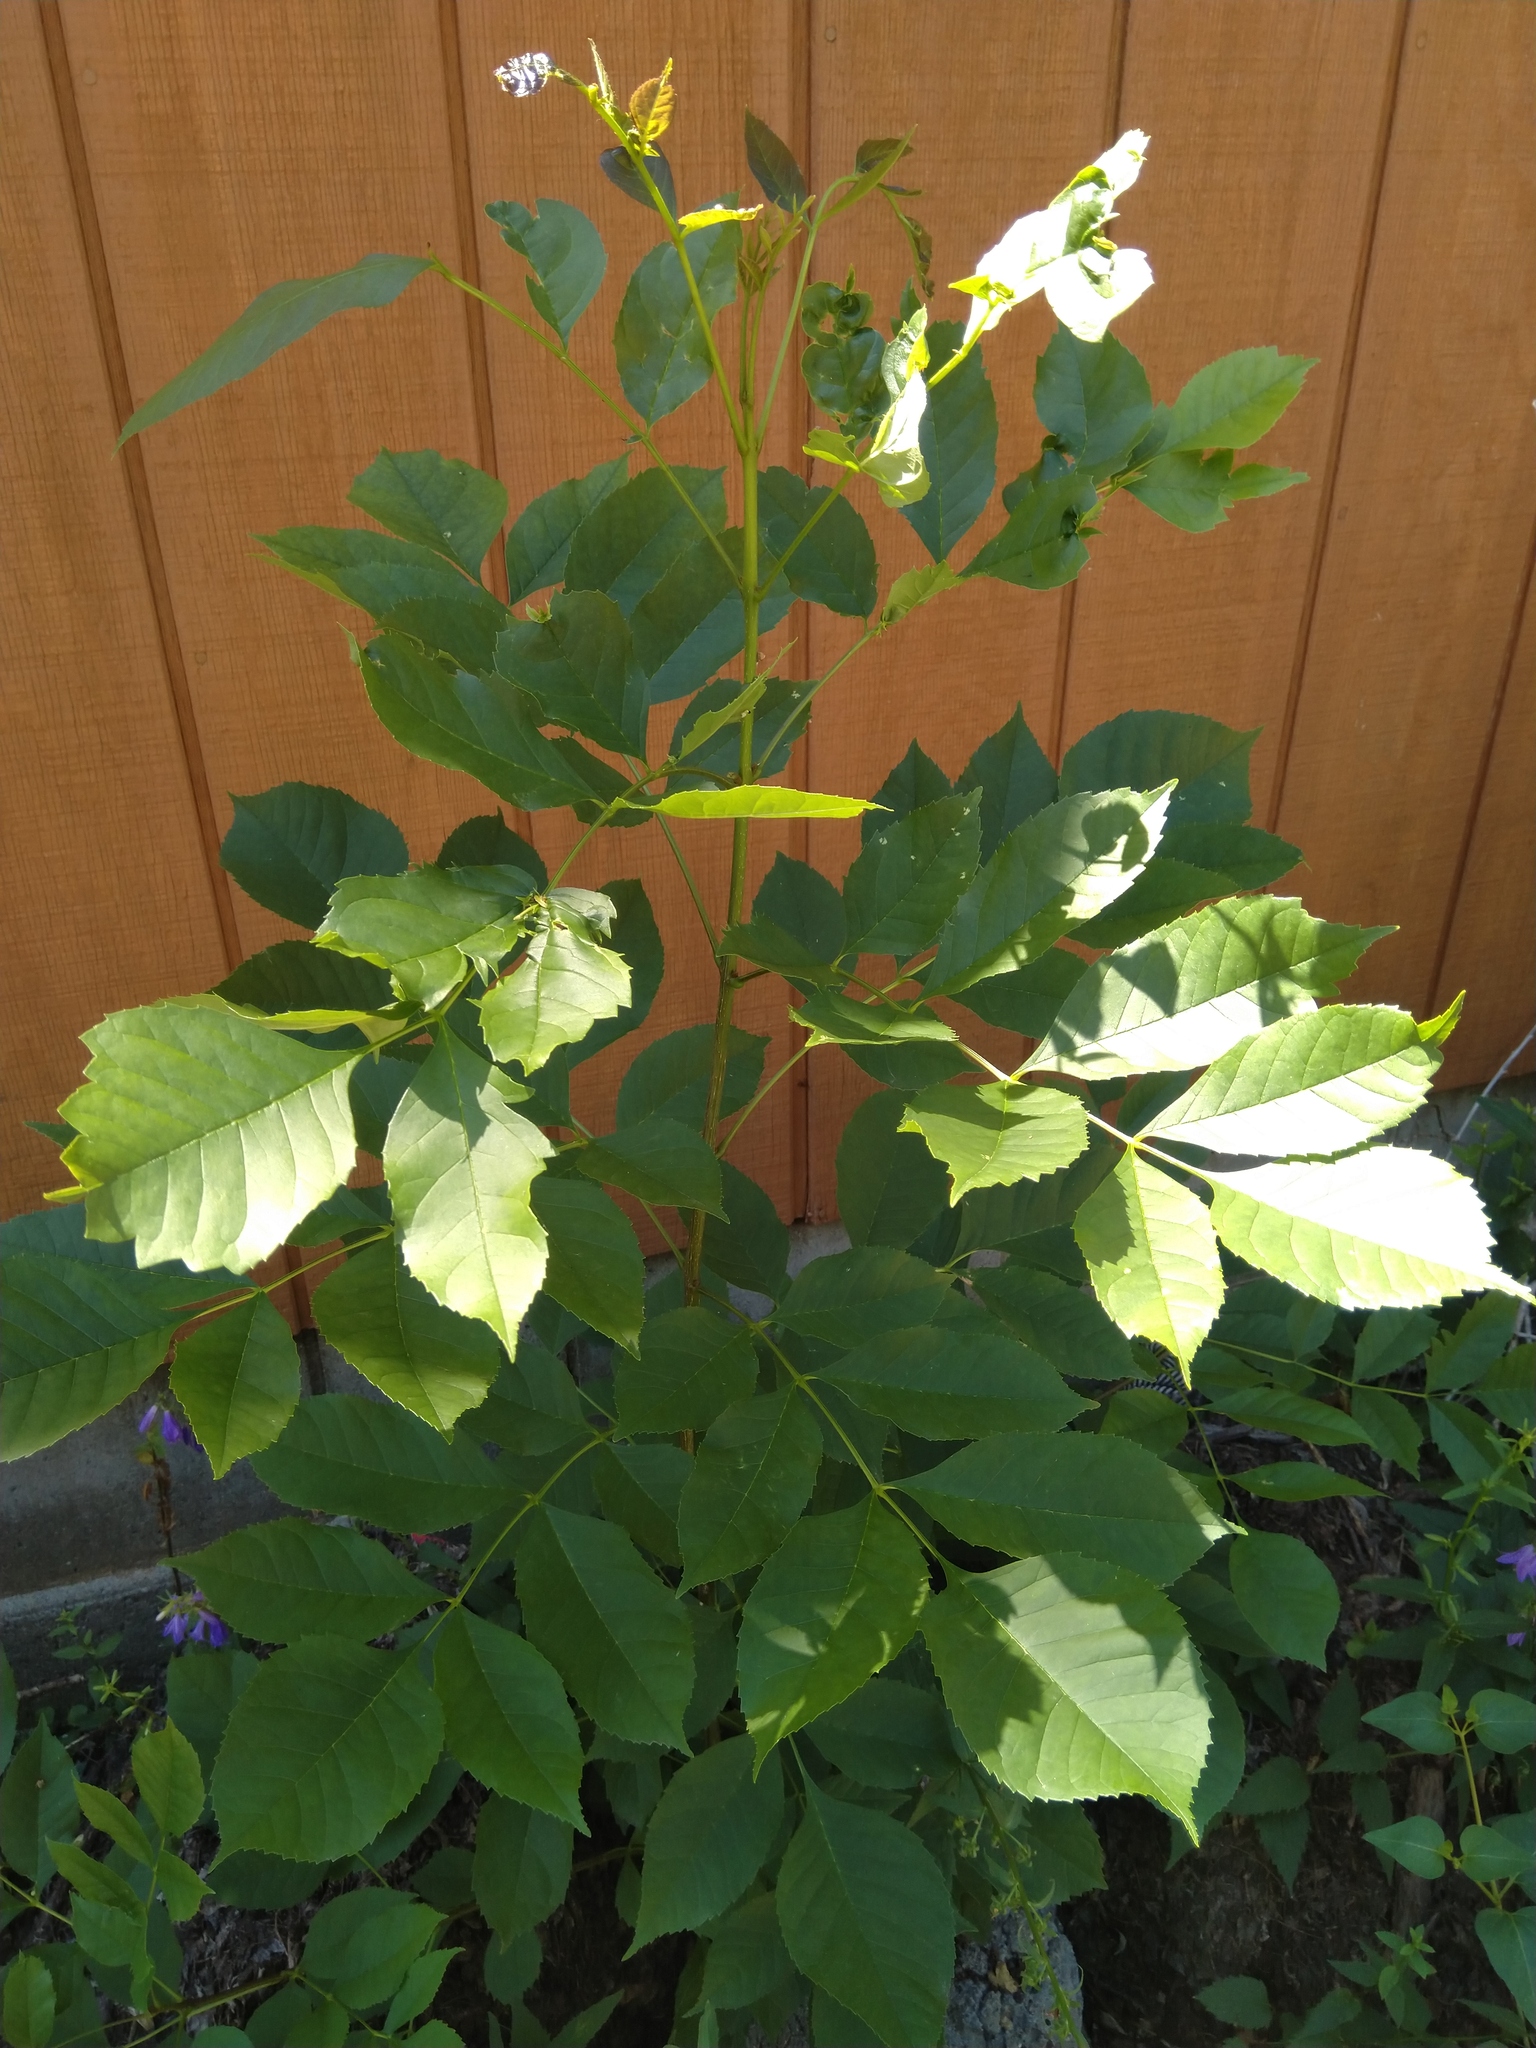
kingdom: Plantae
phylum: Tracheophyta
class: Magnoliopsida
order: Lamiales
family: Oleaceae
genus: Fraxinus
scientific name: Fraxinus pennsylvanica
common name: Green ash
